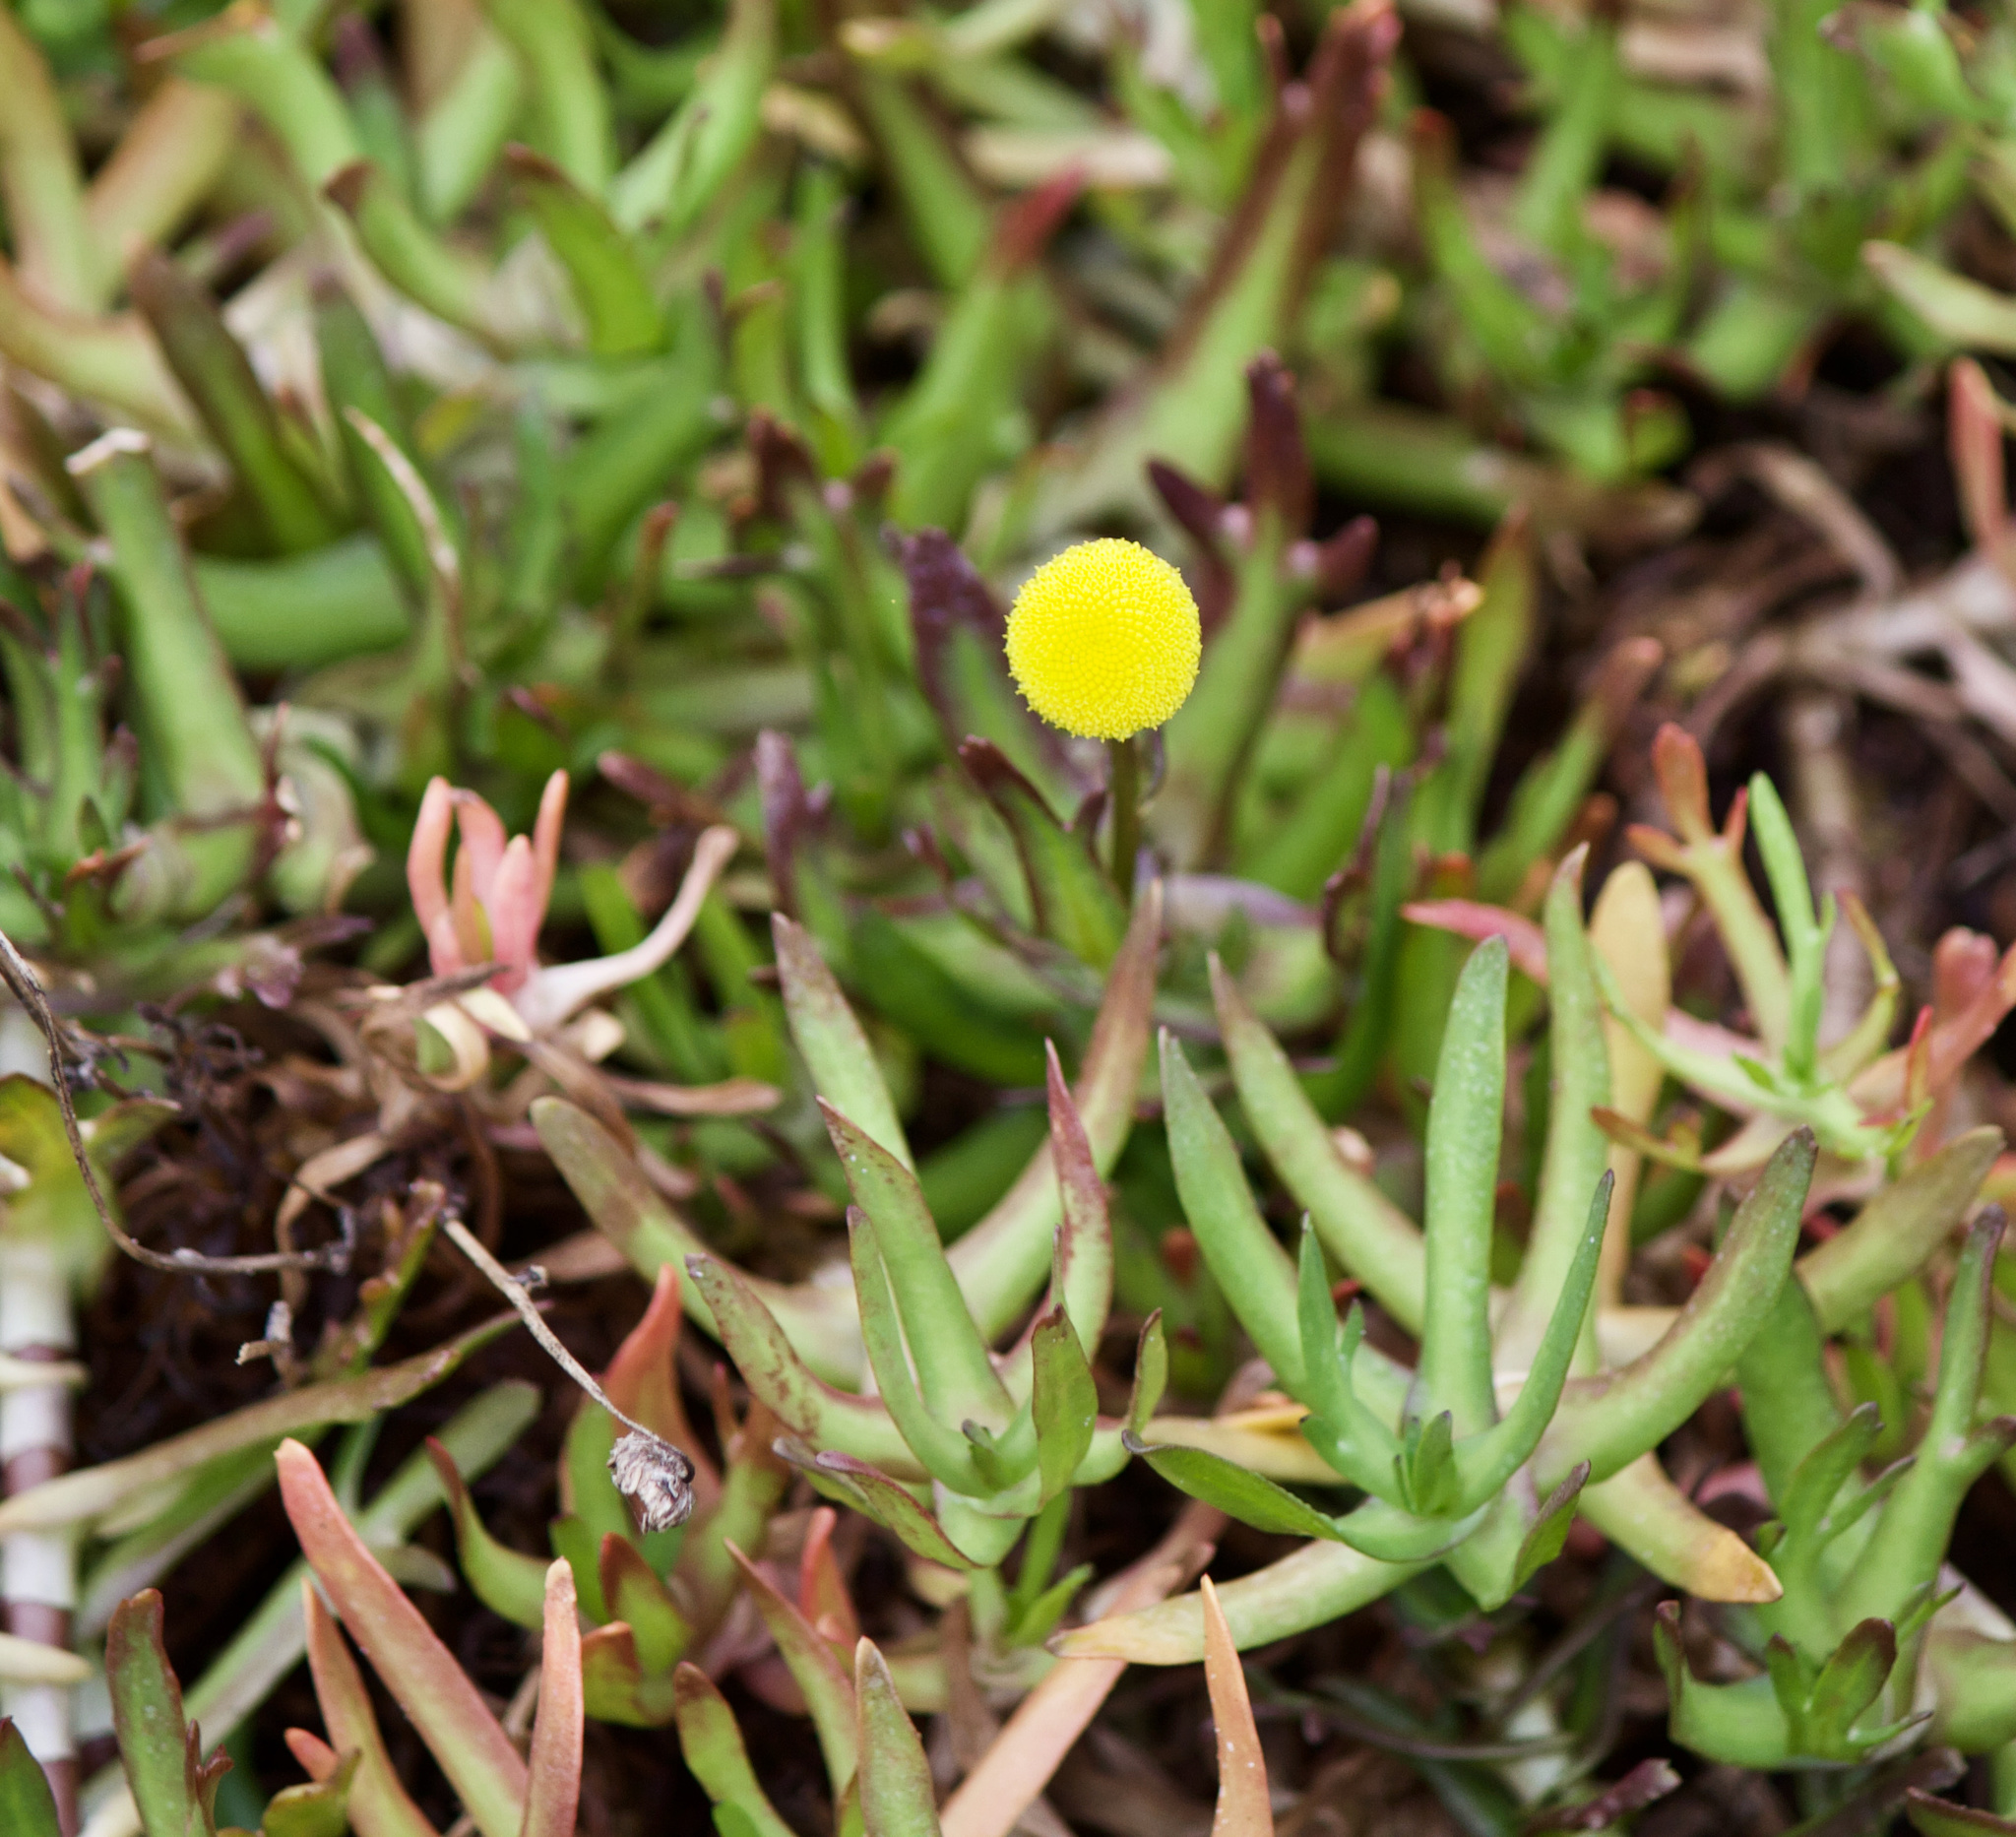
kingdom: Plantae
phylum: Tracheophyta
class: Magnoliopsida
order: Asterales
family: Asteraceae
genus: Cotula
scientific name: Cotula coronopifolia
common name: Buttonweed
